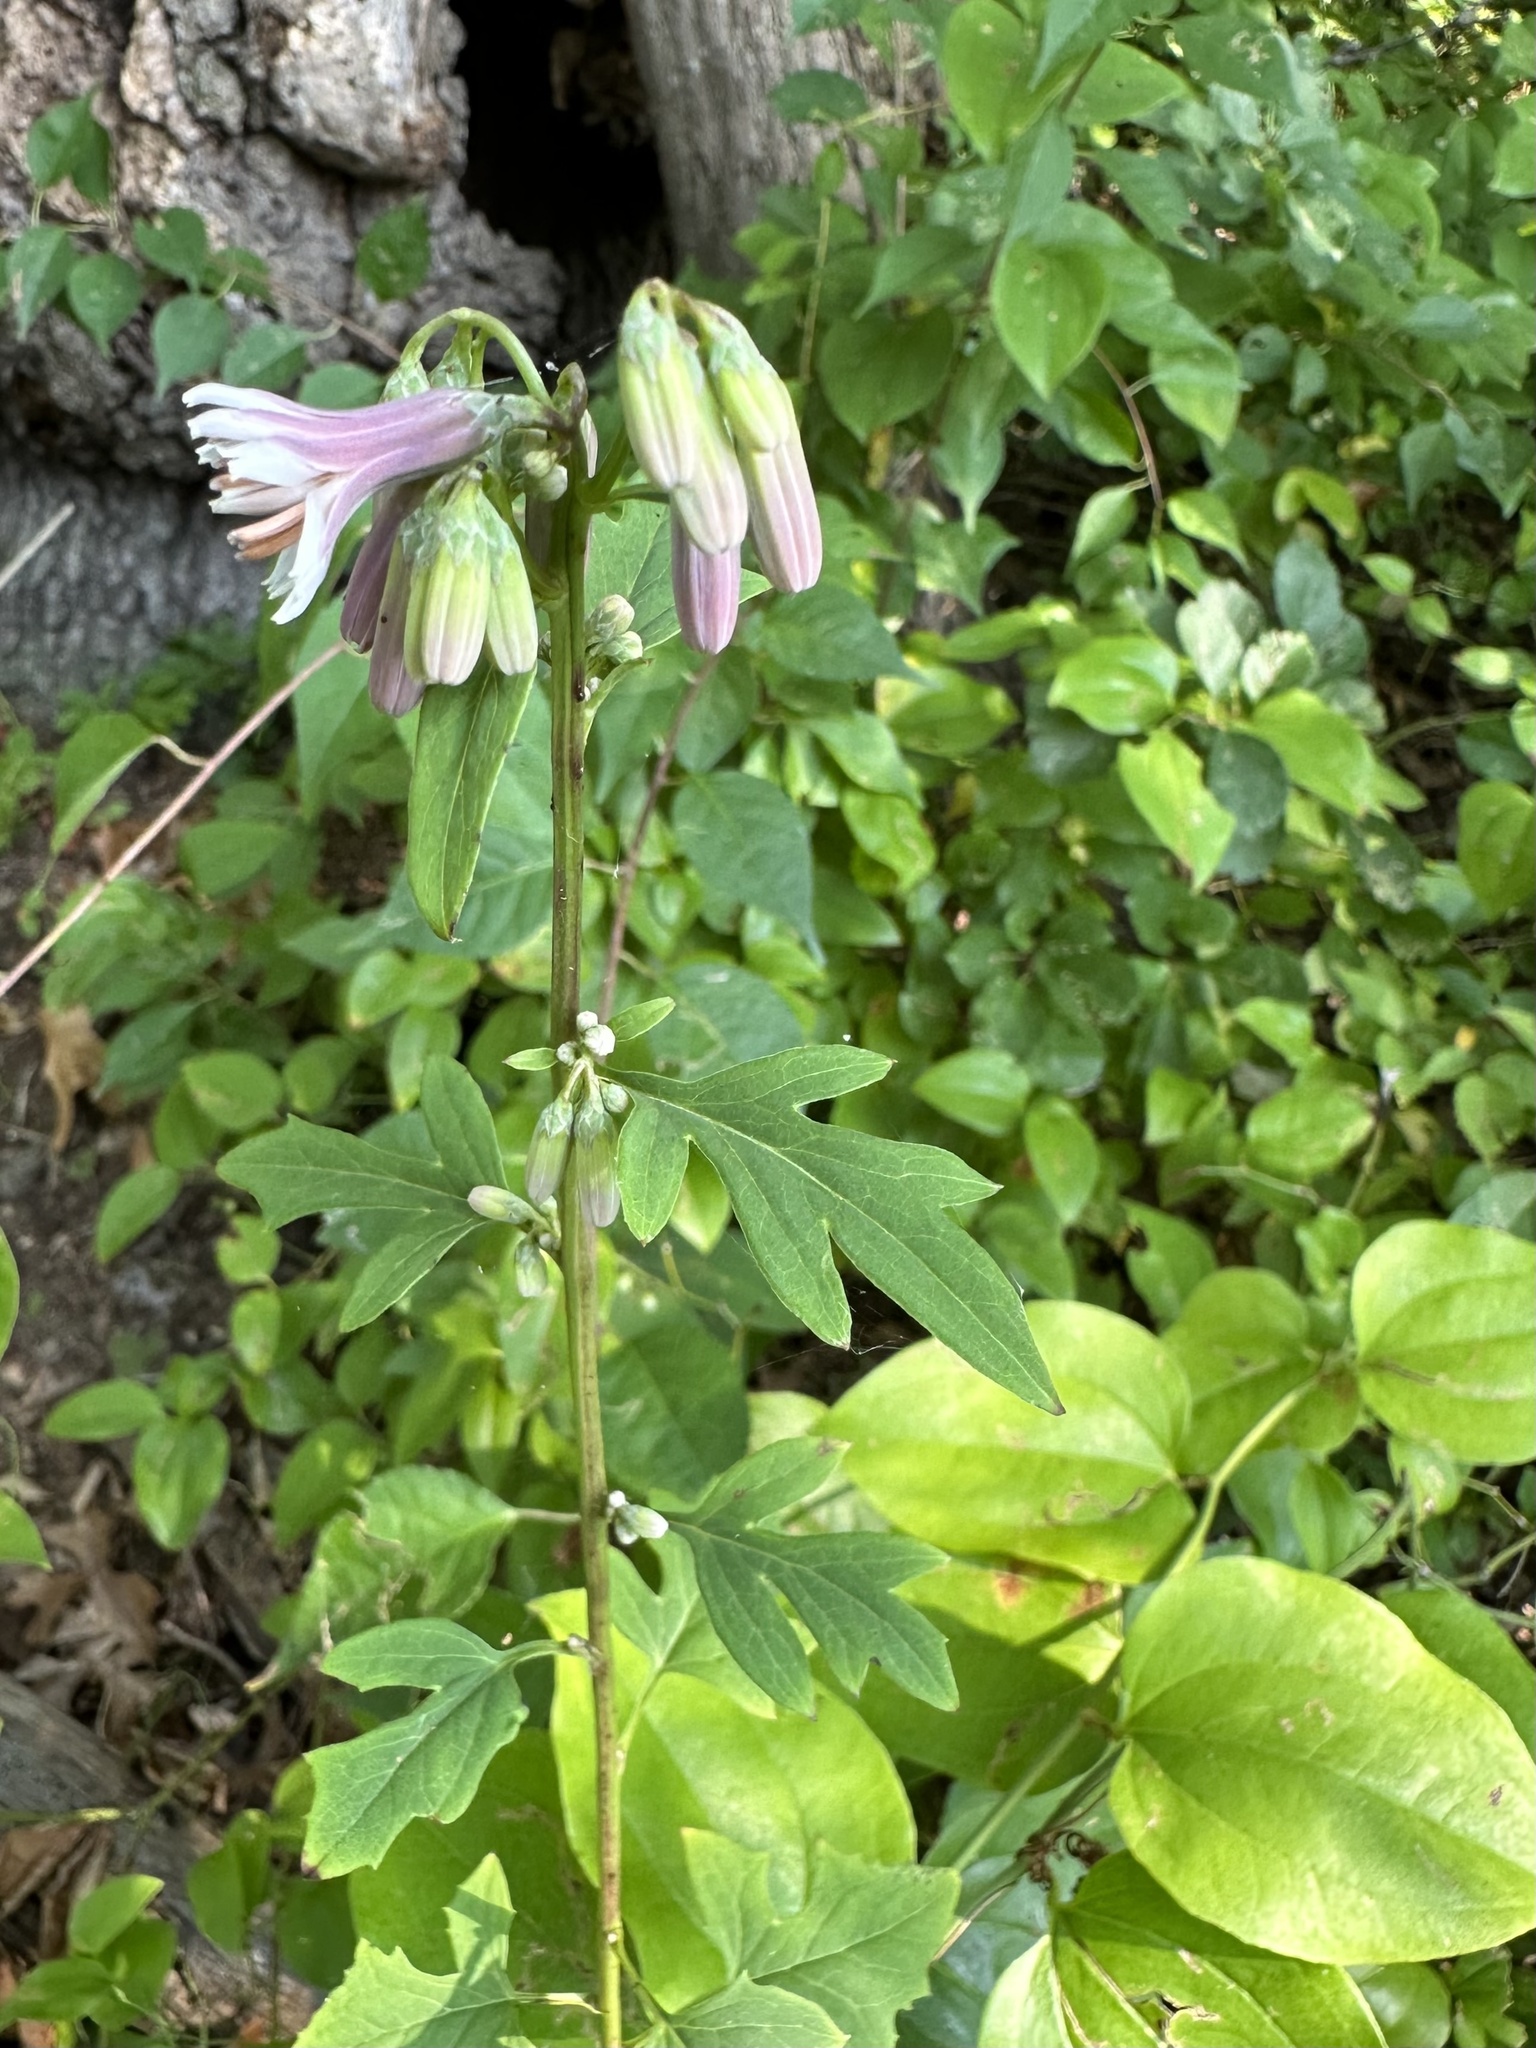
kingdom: Plantae
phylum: Tracheophyta
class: Magnoliopsida
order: Asterales
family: Asteraceae
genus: Nabalus
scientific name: Nabalus albus
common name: White rattlesnakeroot
